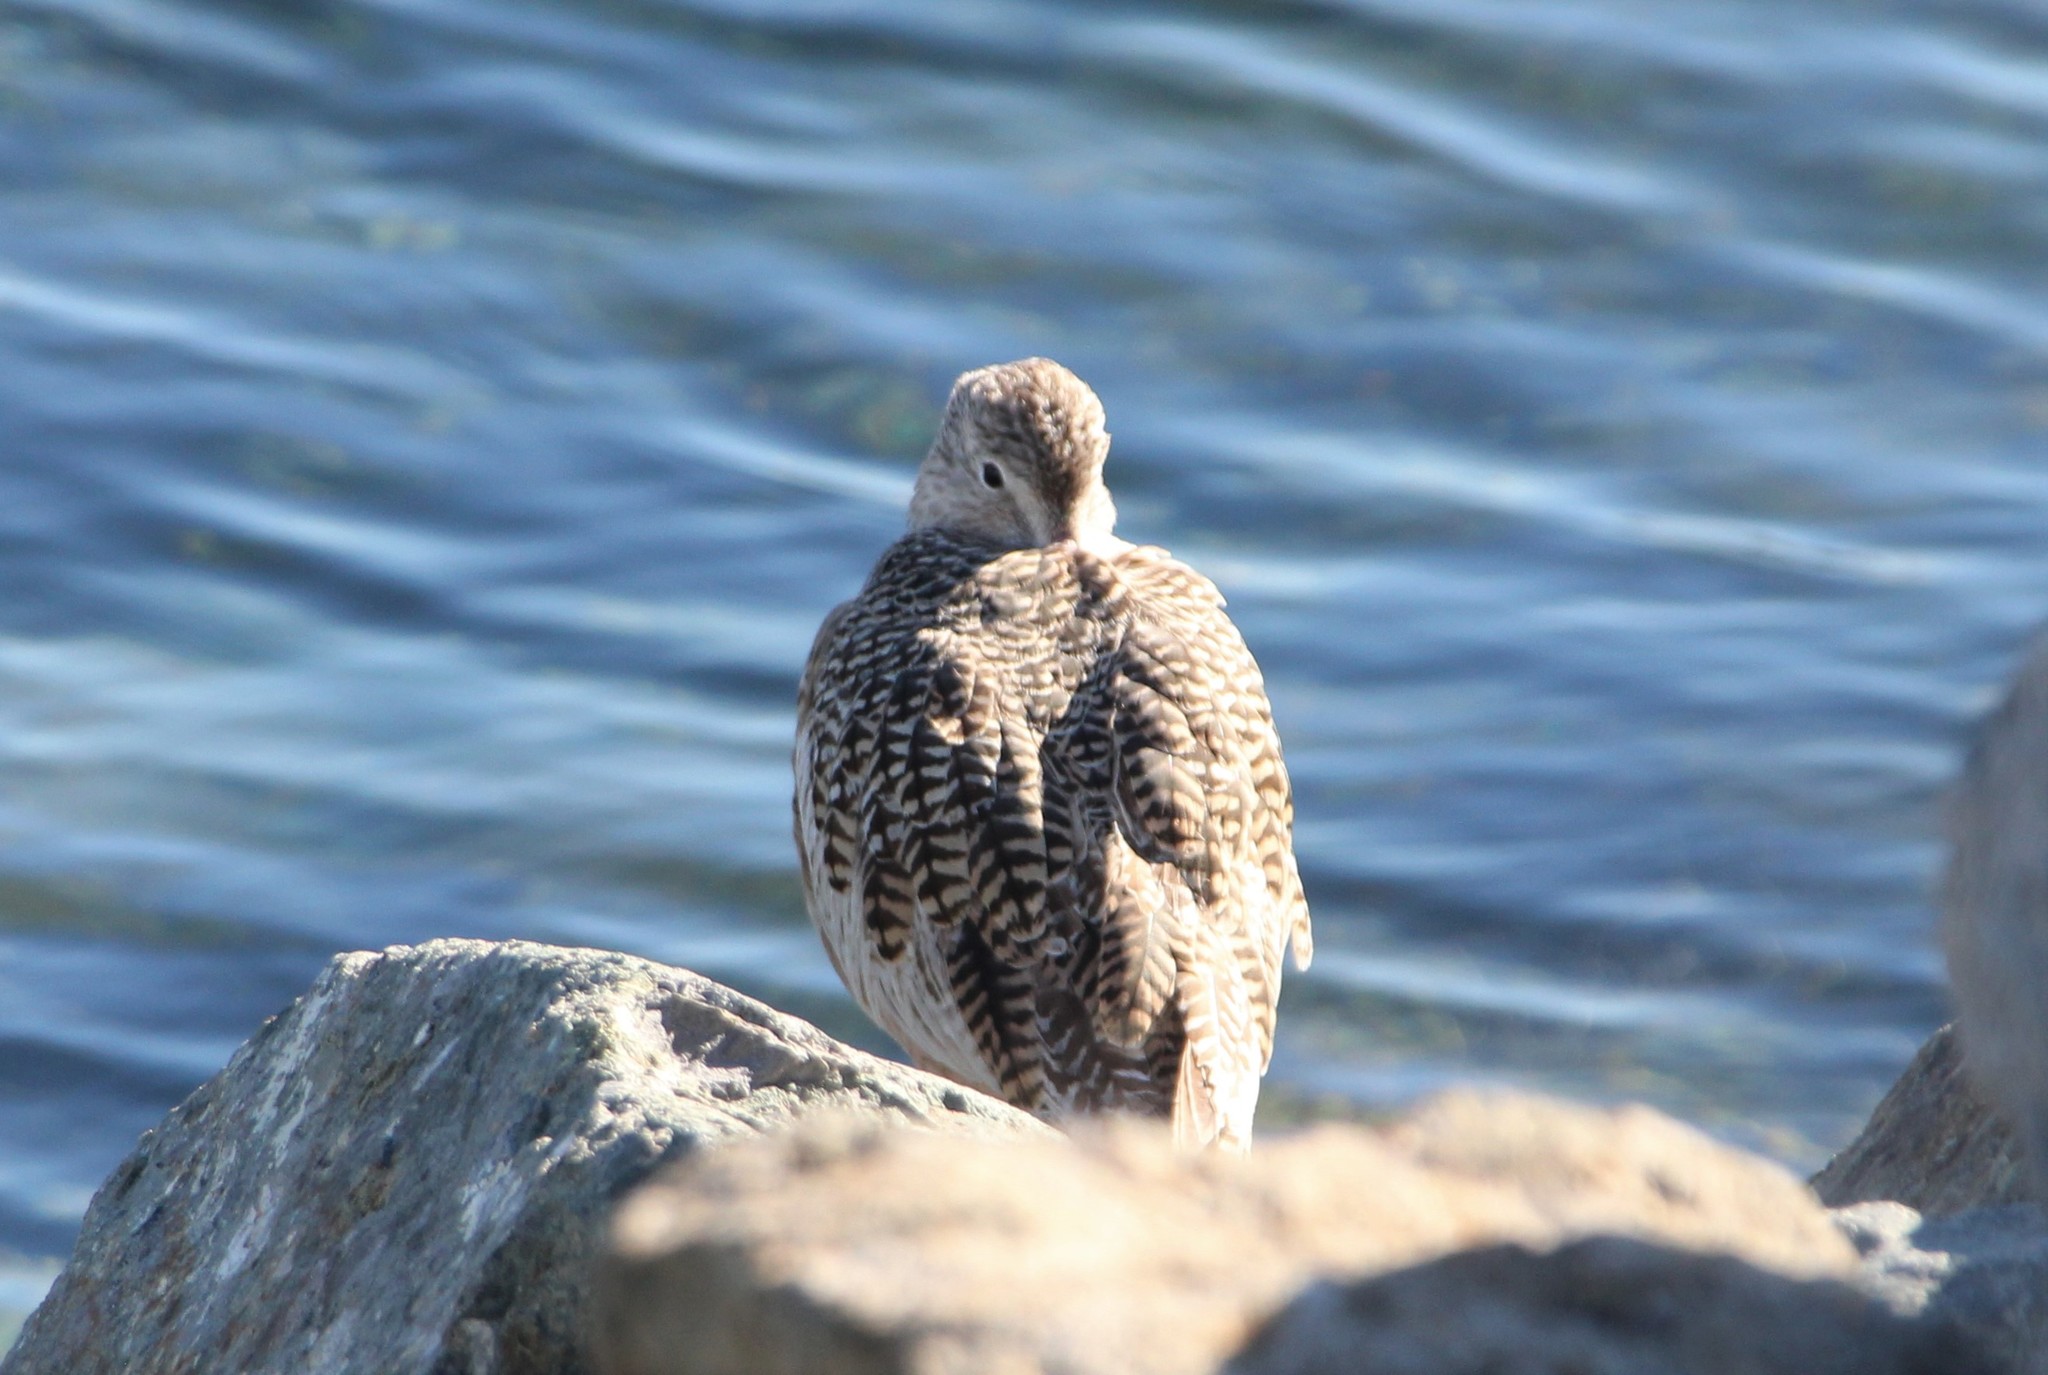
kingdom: Animalia
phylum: Chordata
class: Aves
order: Charadriiformes
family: Scolopacidae
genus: Limosa
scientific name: Limosa fedoa
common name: Marbled godwit
